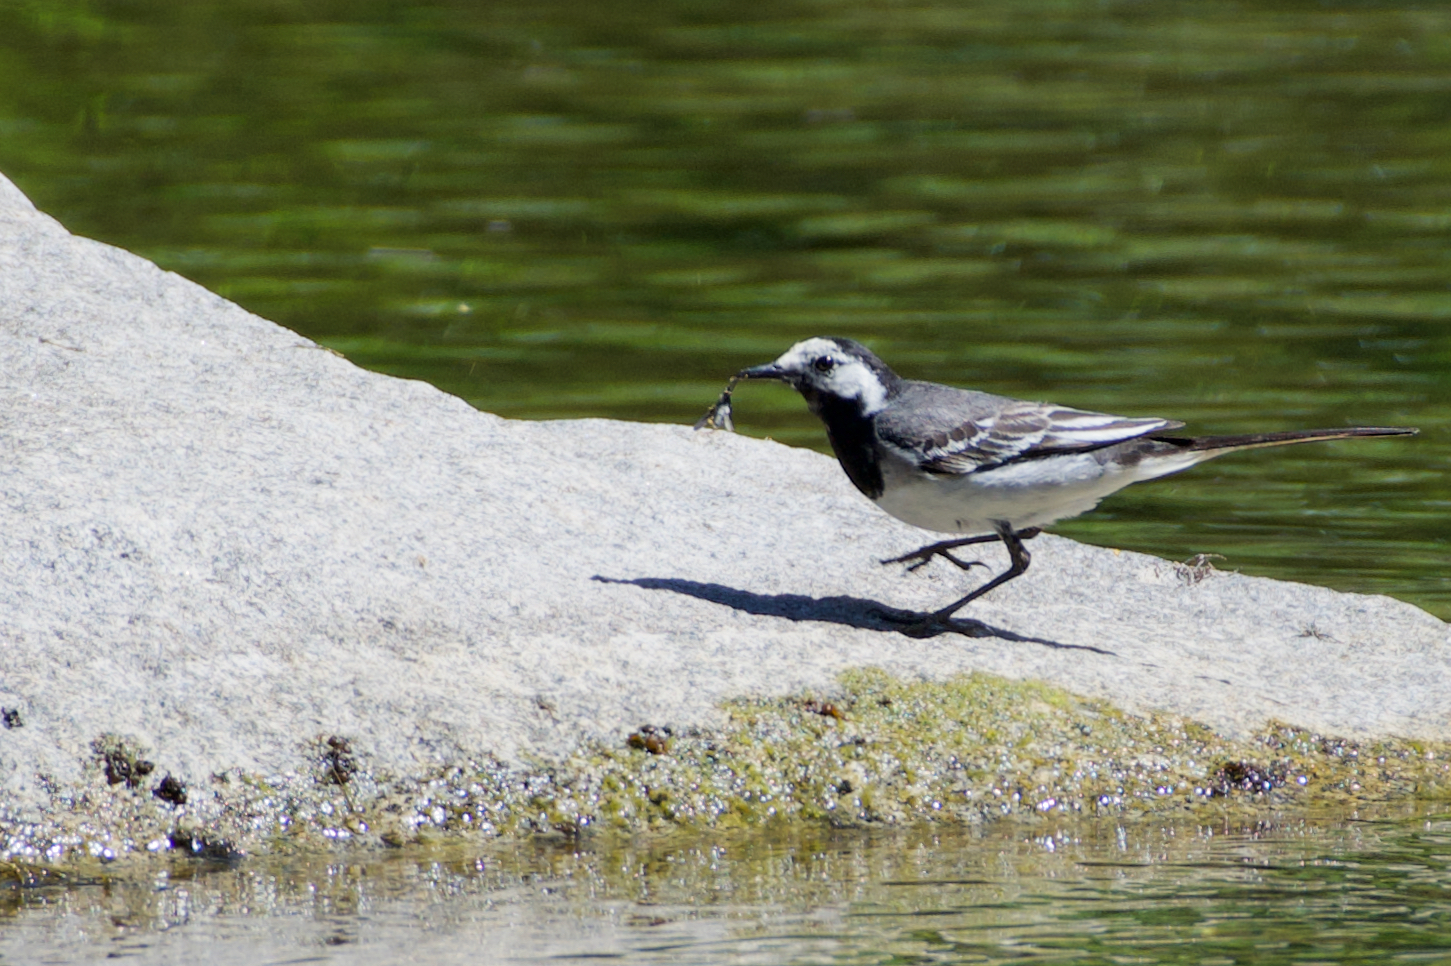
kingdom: Animalia
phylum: Chordata
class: Aves
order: Passeriformes
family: Motacillidae
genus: Motacilla
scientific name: Motacilla alba
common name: White wagtail
